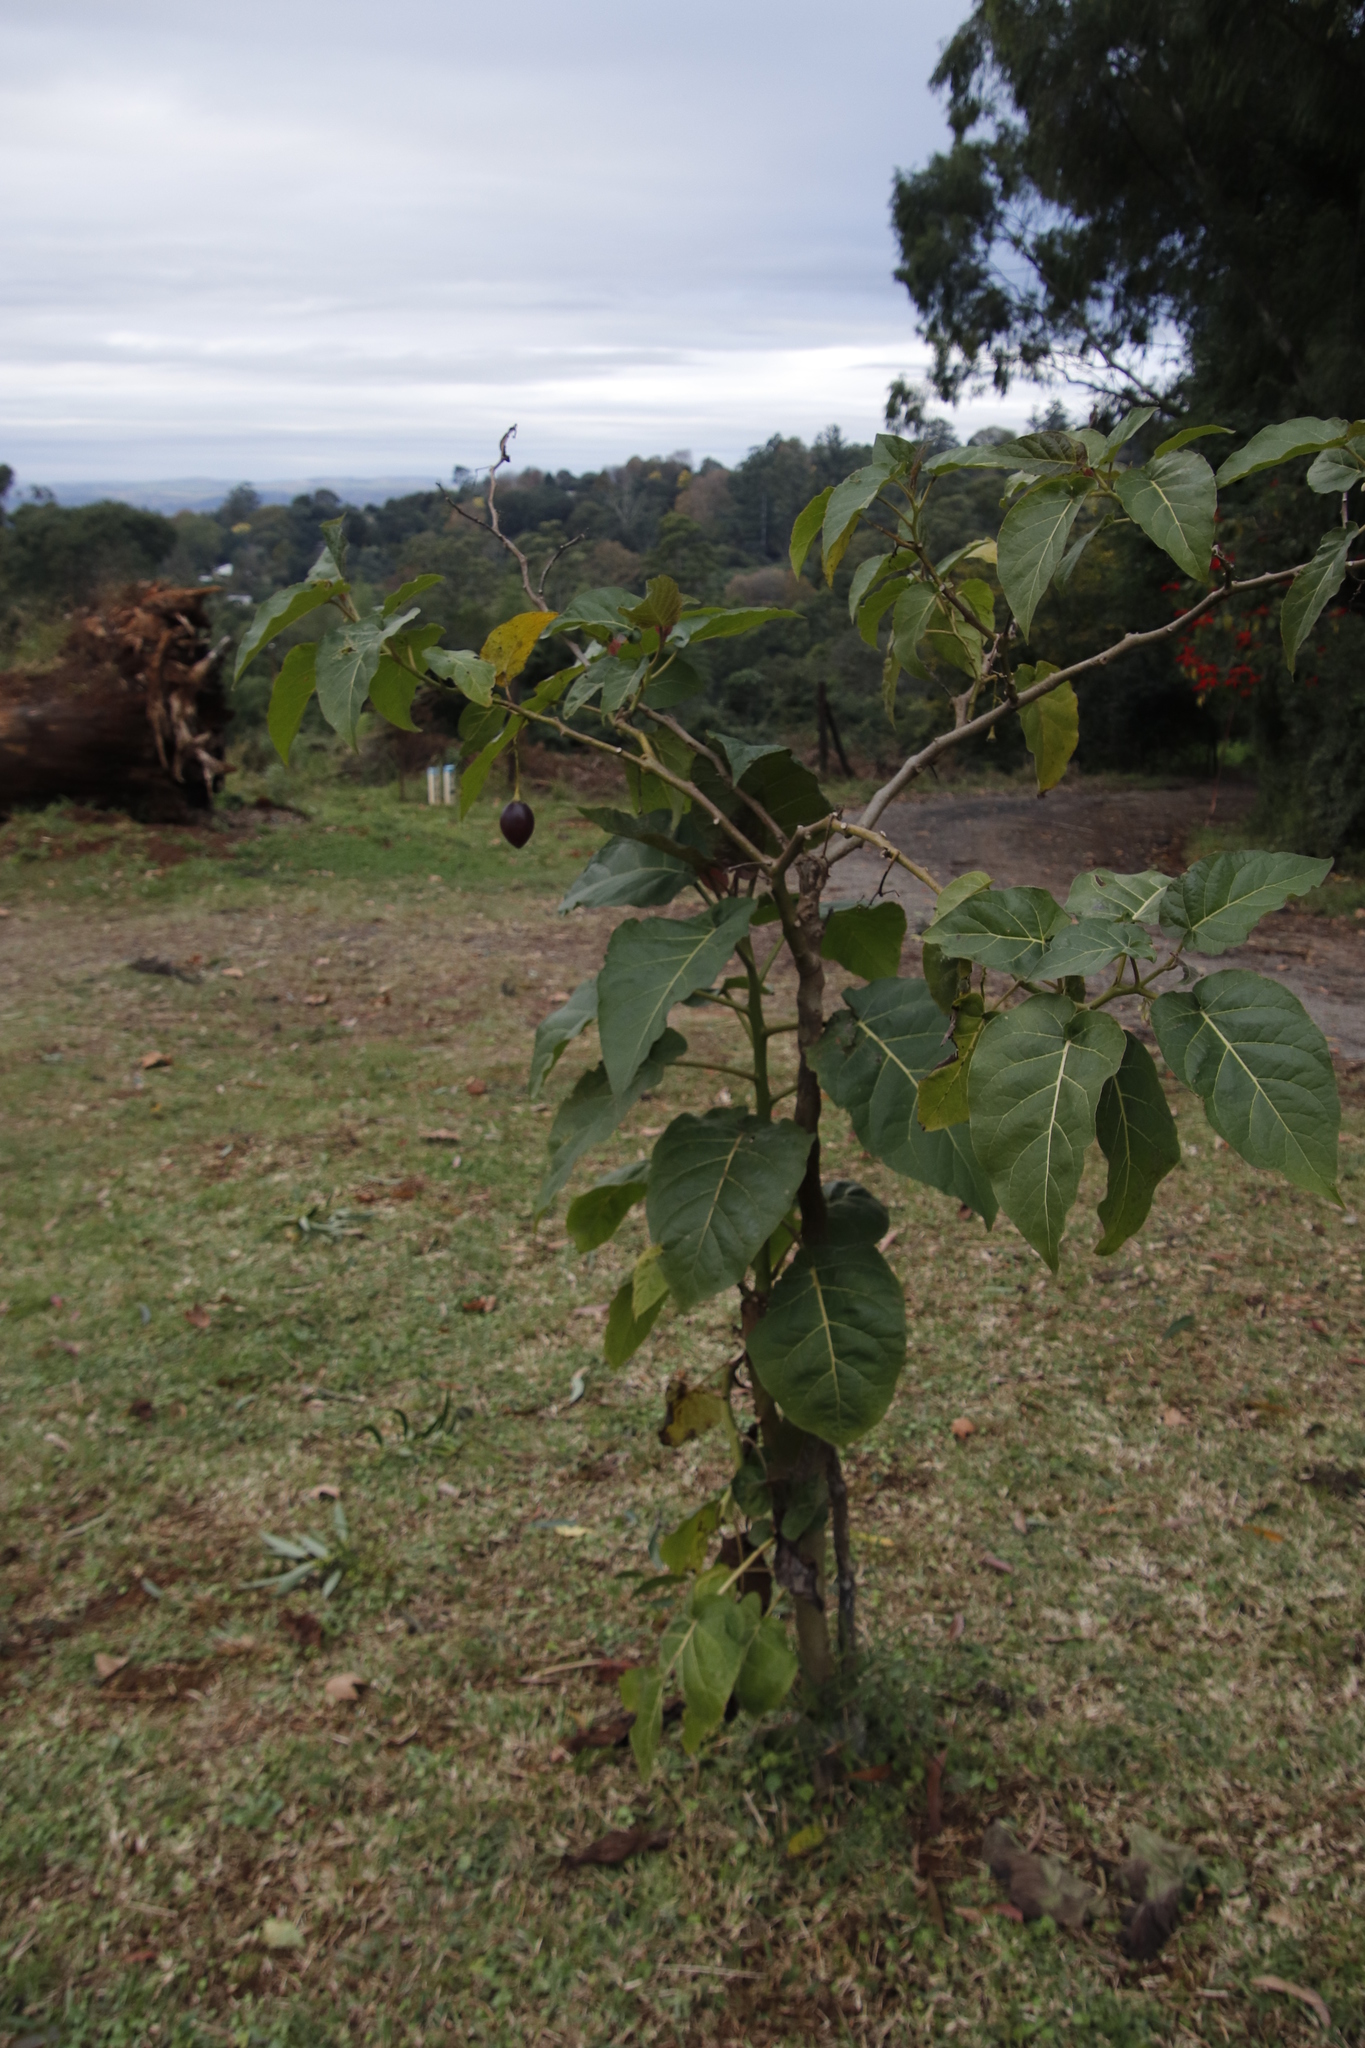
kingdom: Plantae
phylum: Tracheophyta
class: Magnoliopsida
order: Solanales
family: Solanaceae
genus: Solanum
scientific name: Solanum betaceum
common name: Tamarillo
